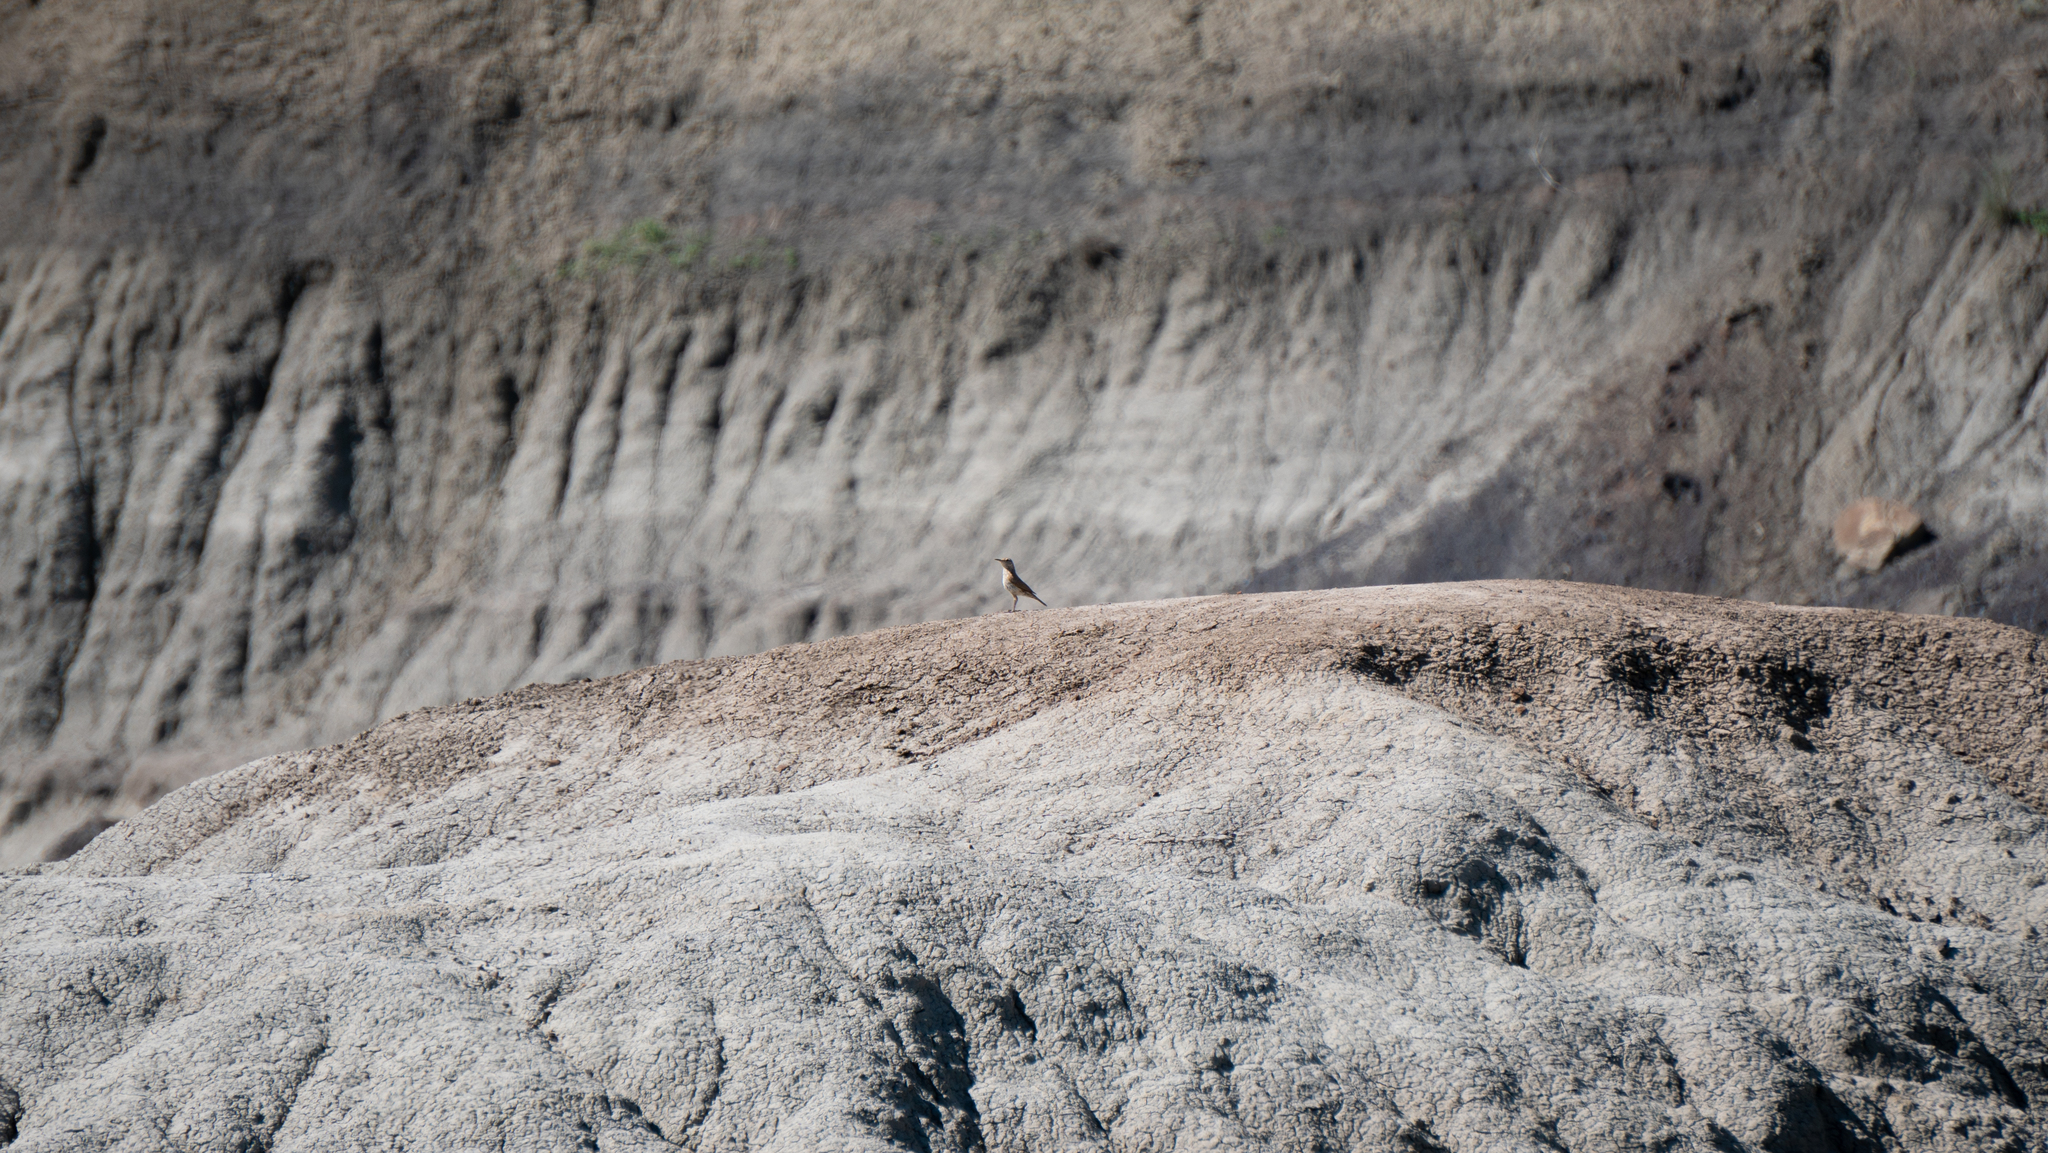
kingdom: Animalia
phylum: Chordata
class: Aves
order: Passeriformes
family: Troglodytidae
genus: Salpinctes
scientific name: Salpinctes obsoletus
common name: Rock wren
